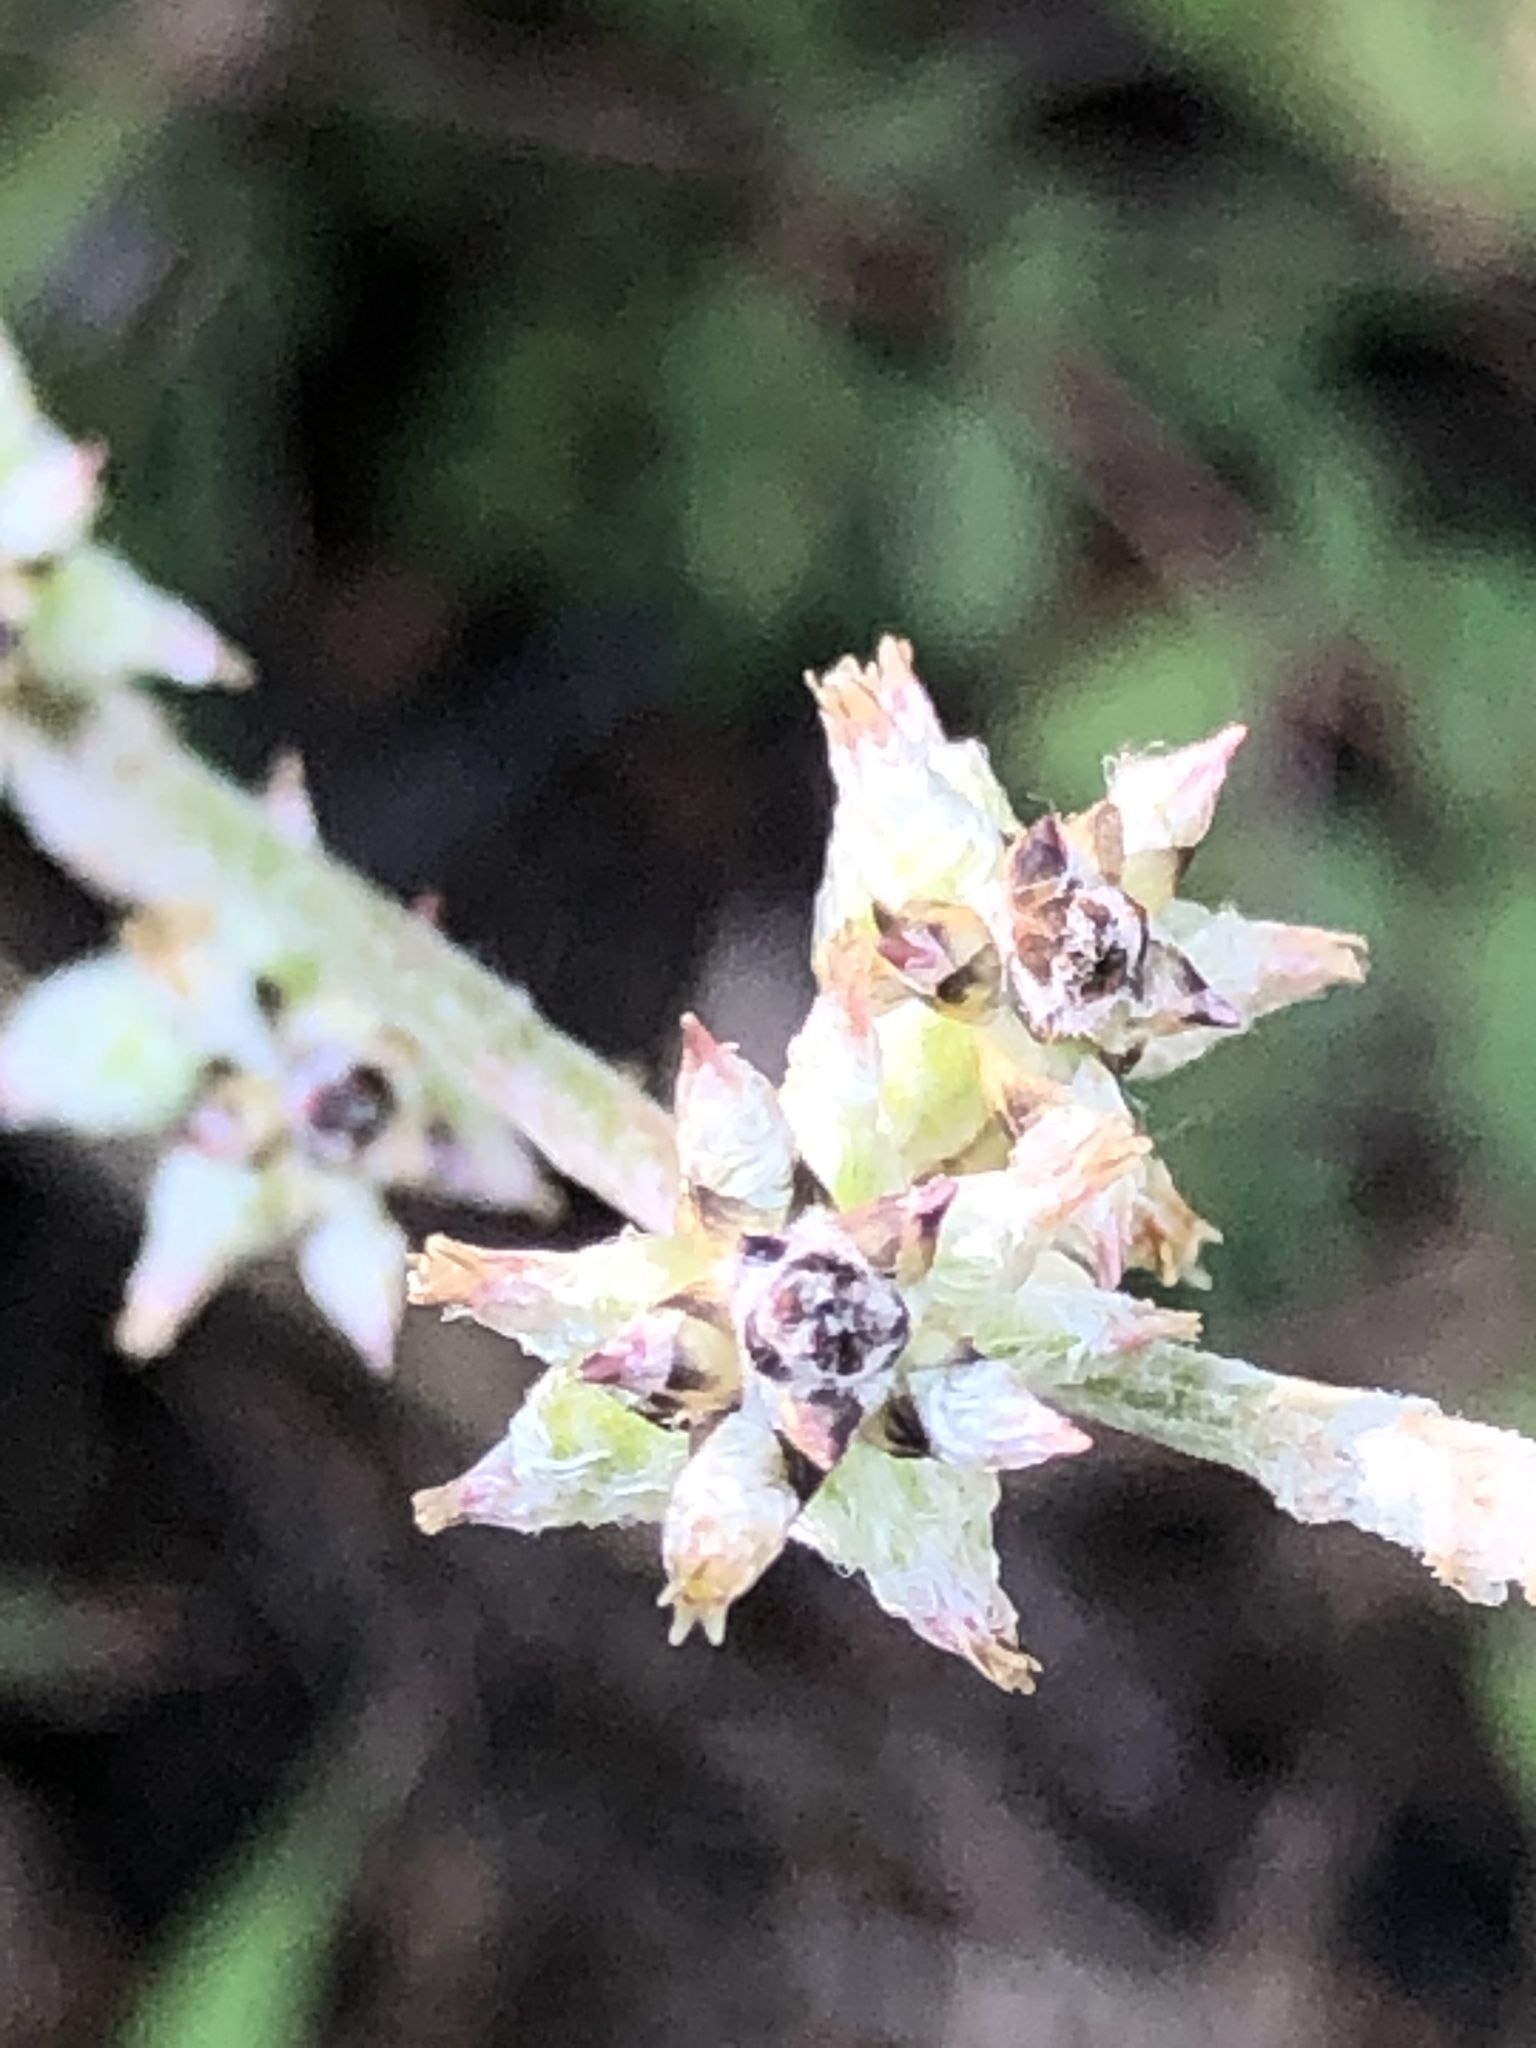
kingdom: Plantae
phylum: Tracheophyta
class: Magnoliopsida
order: Caryophyllales
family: Amaranthaceae
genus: Froelichia
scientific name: Froelichia gracilis
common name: Slender cottonweed
